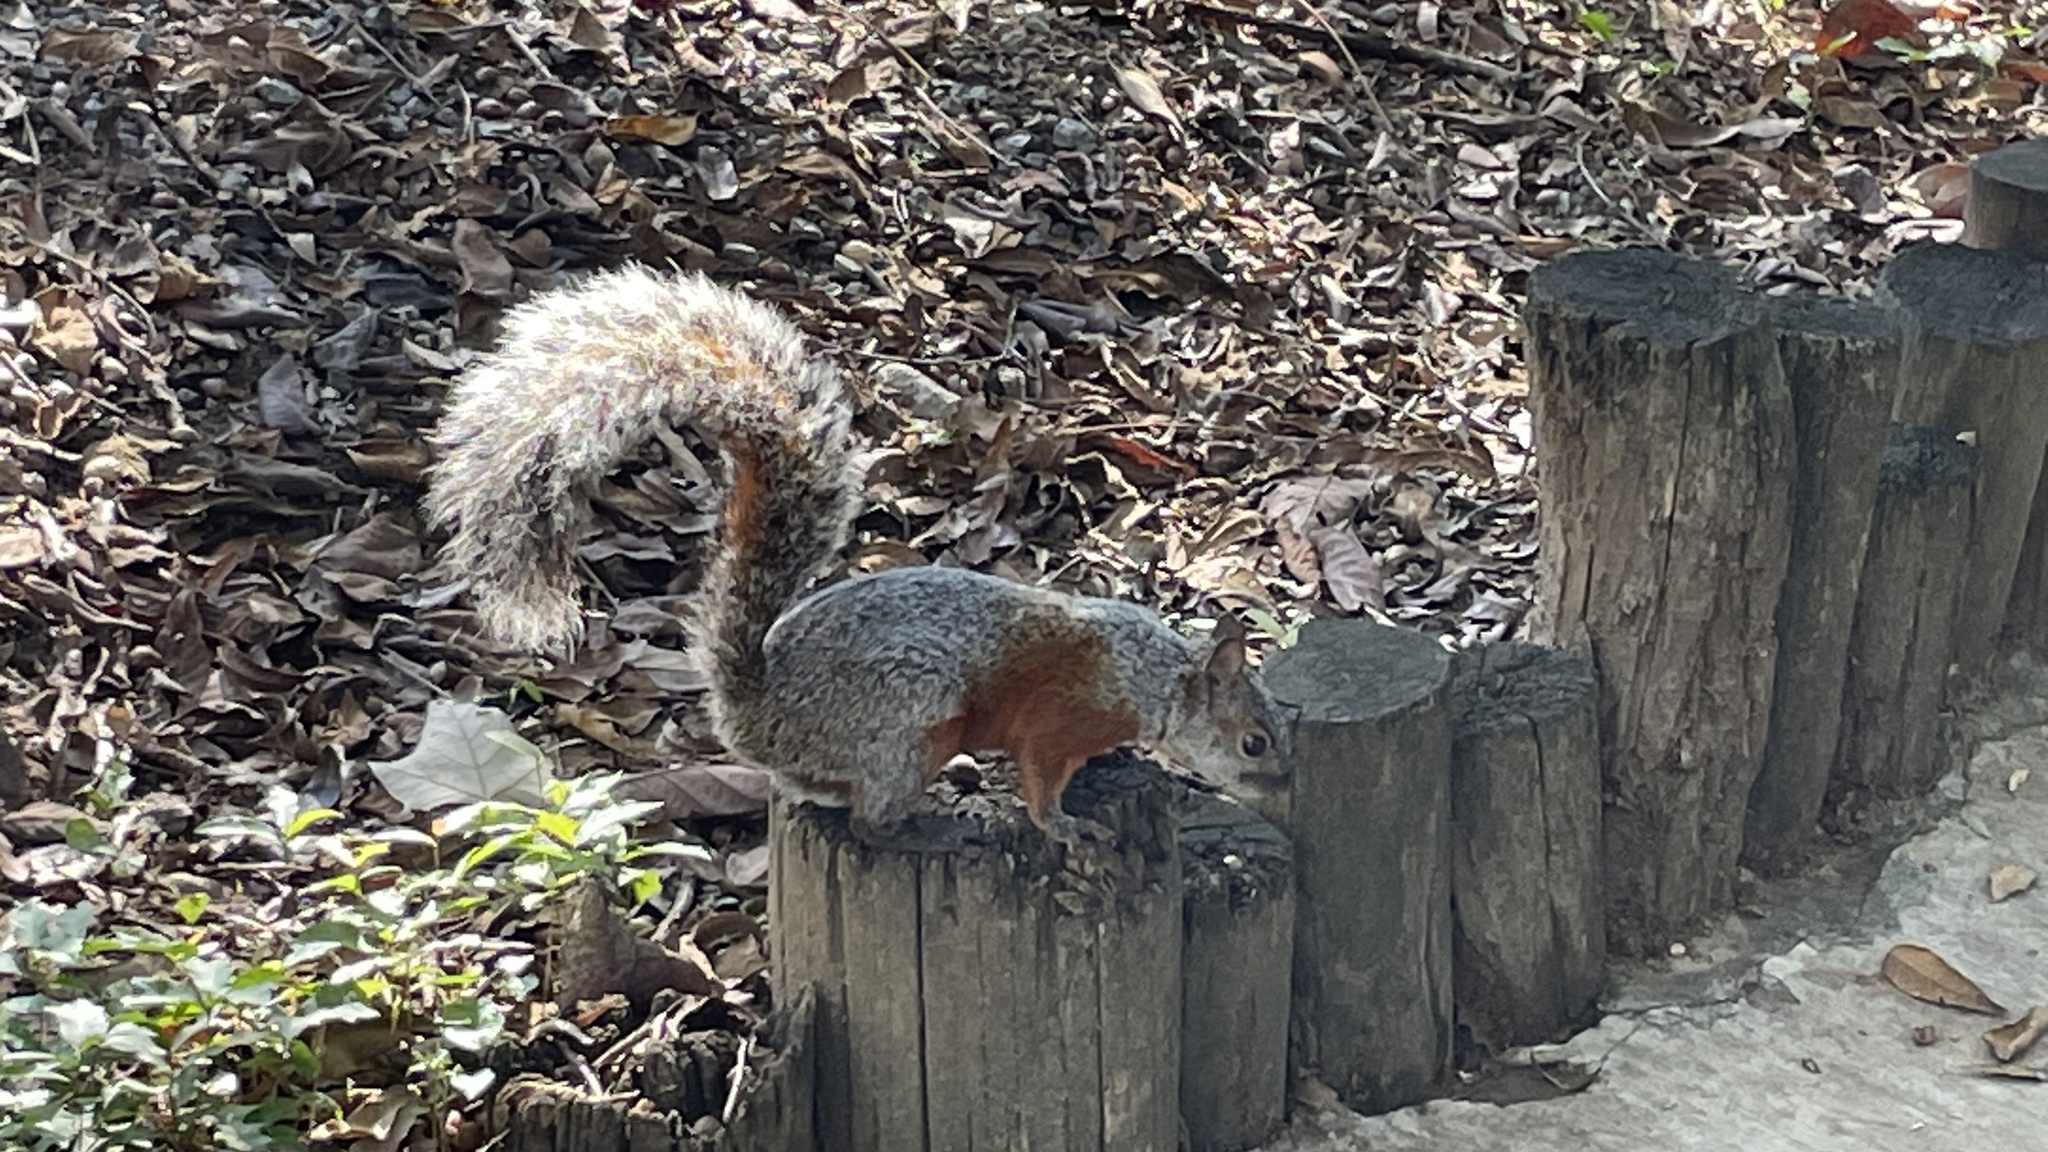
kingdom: Animalia
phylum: Chordata
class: Mammalia
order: Rodentia
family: Sciuridae
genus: Sciurus
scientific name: Sciurus aureogaster
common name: Red-bellied squirrel
